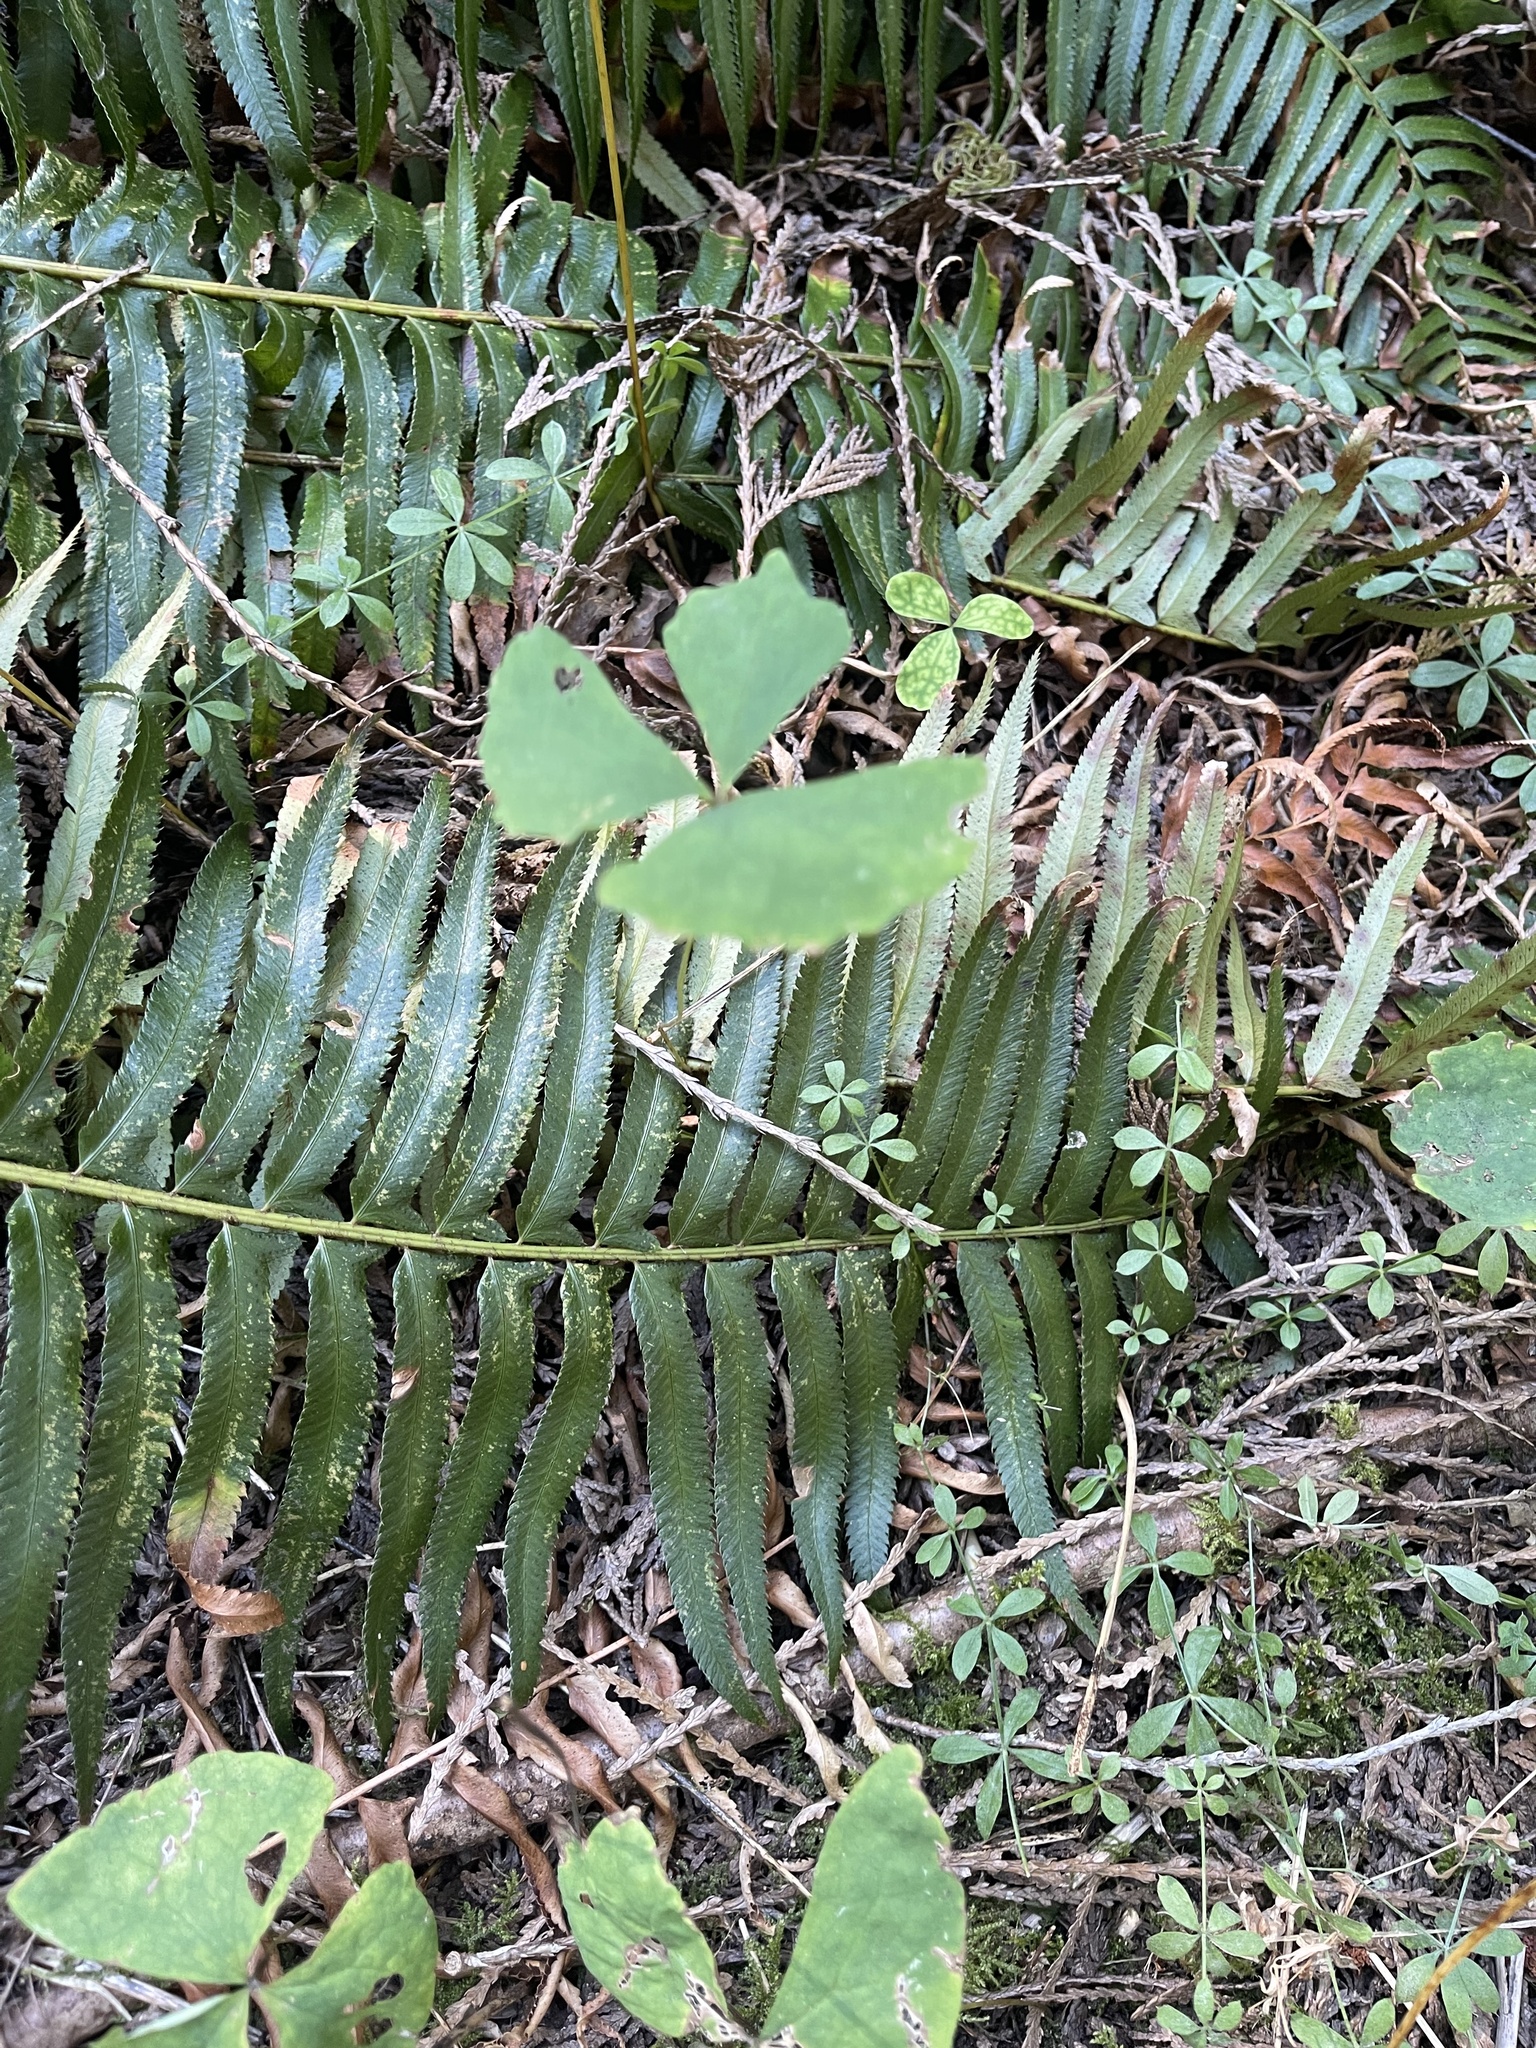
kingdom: Plantae
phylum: Tracheophyta
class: Magnoliopsida
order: Ranunculales
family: Berberidaceae
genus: Achlys
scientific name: Achlys triphylla
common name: Vanilla-leaf
